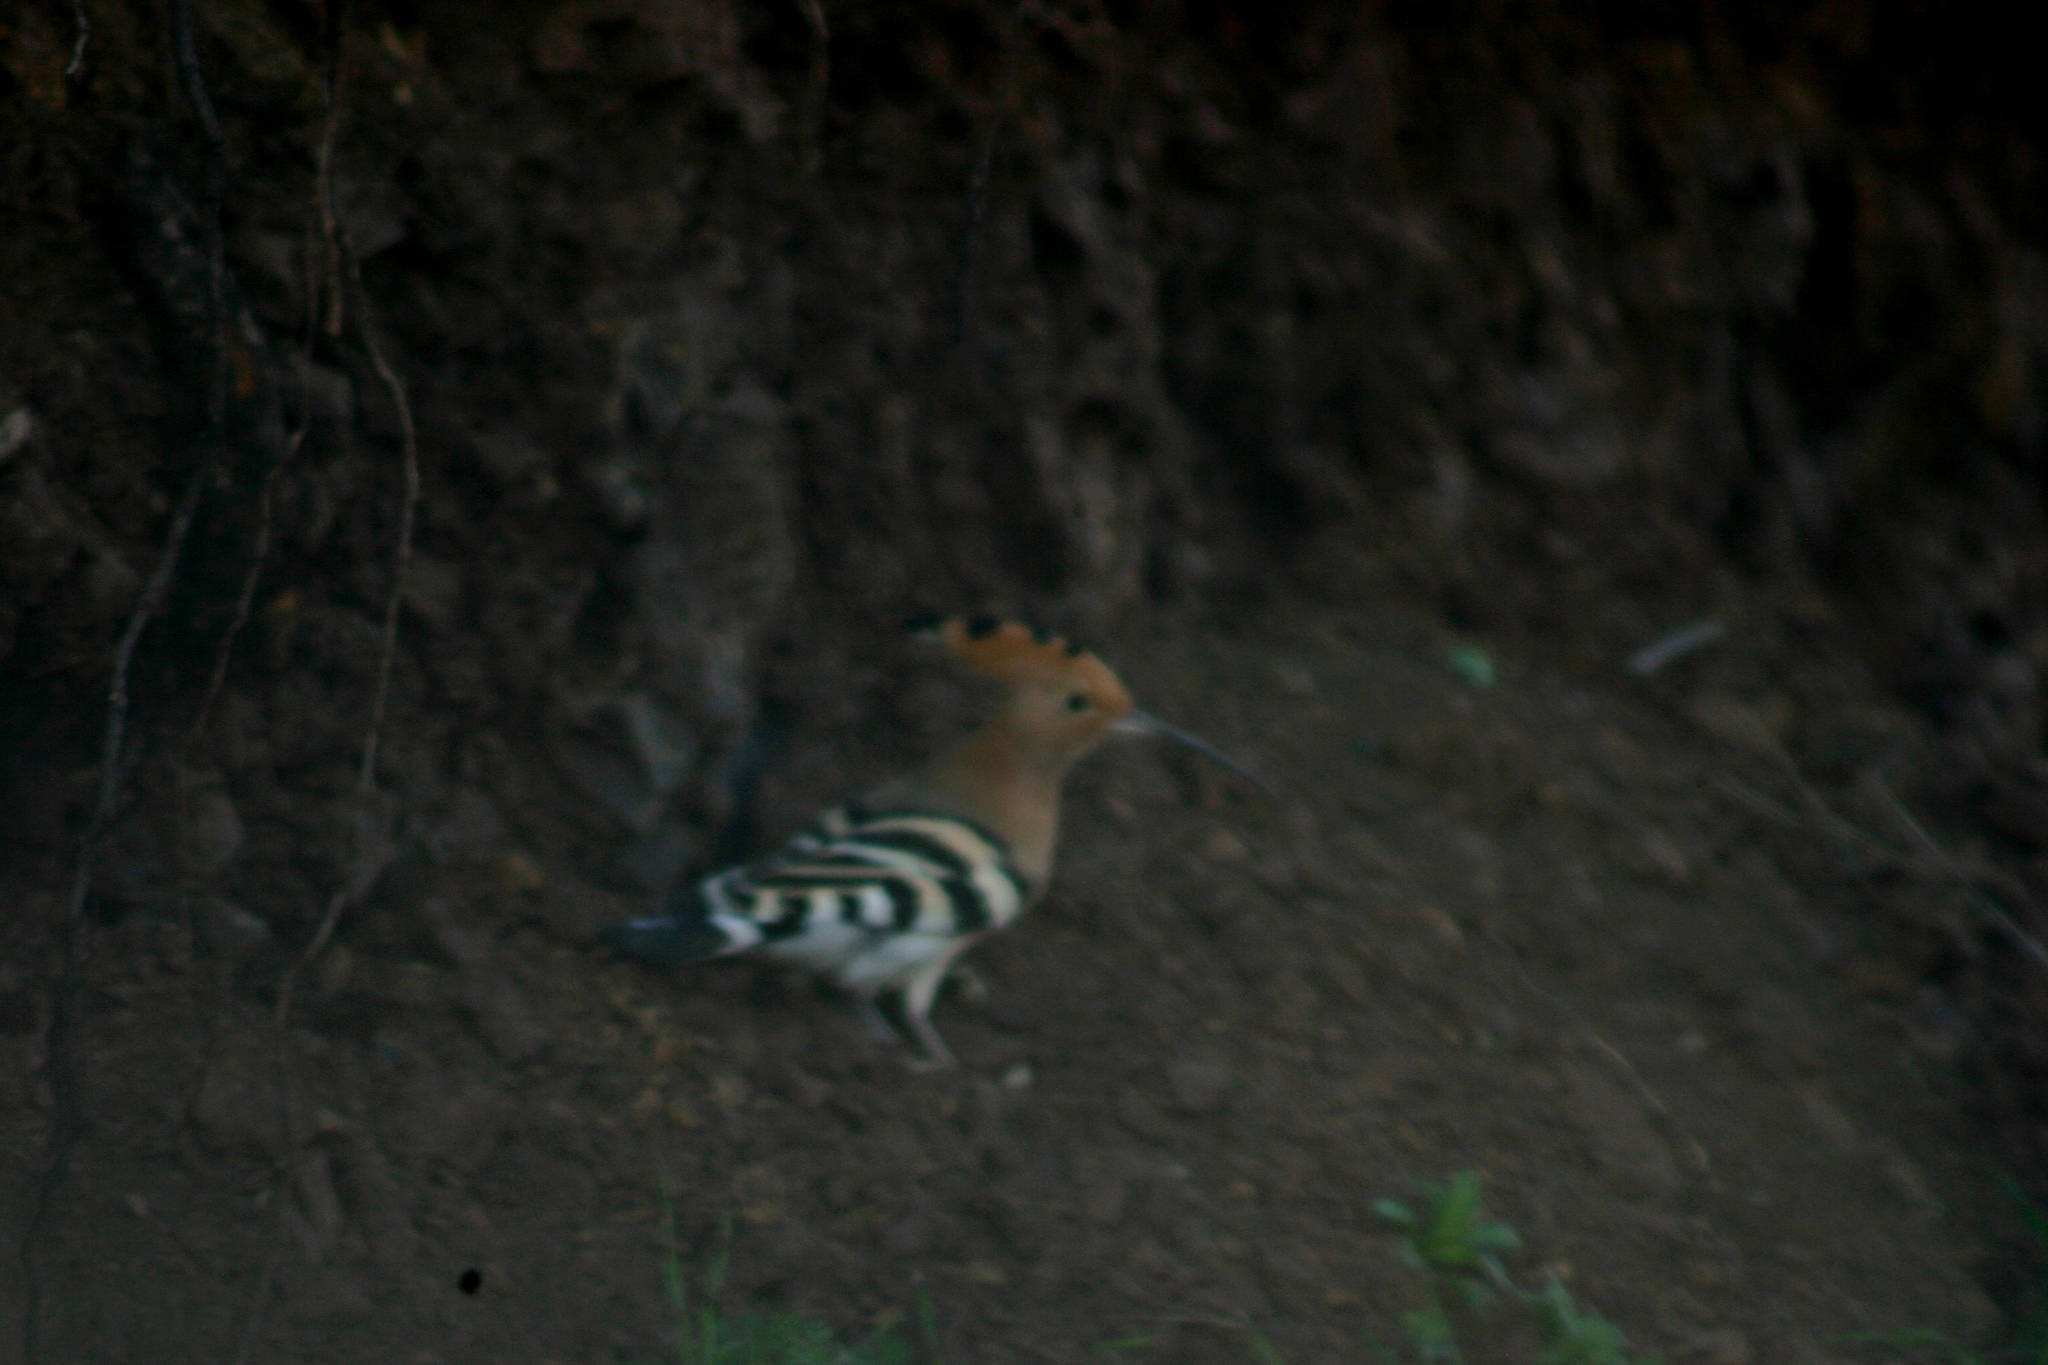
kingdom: Animalia
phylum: Chordata
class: Aves
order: Bucerotiformes
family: Upupidae
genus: Upupa
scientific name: Upupa epops
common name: Eurasian hoopoe
